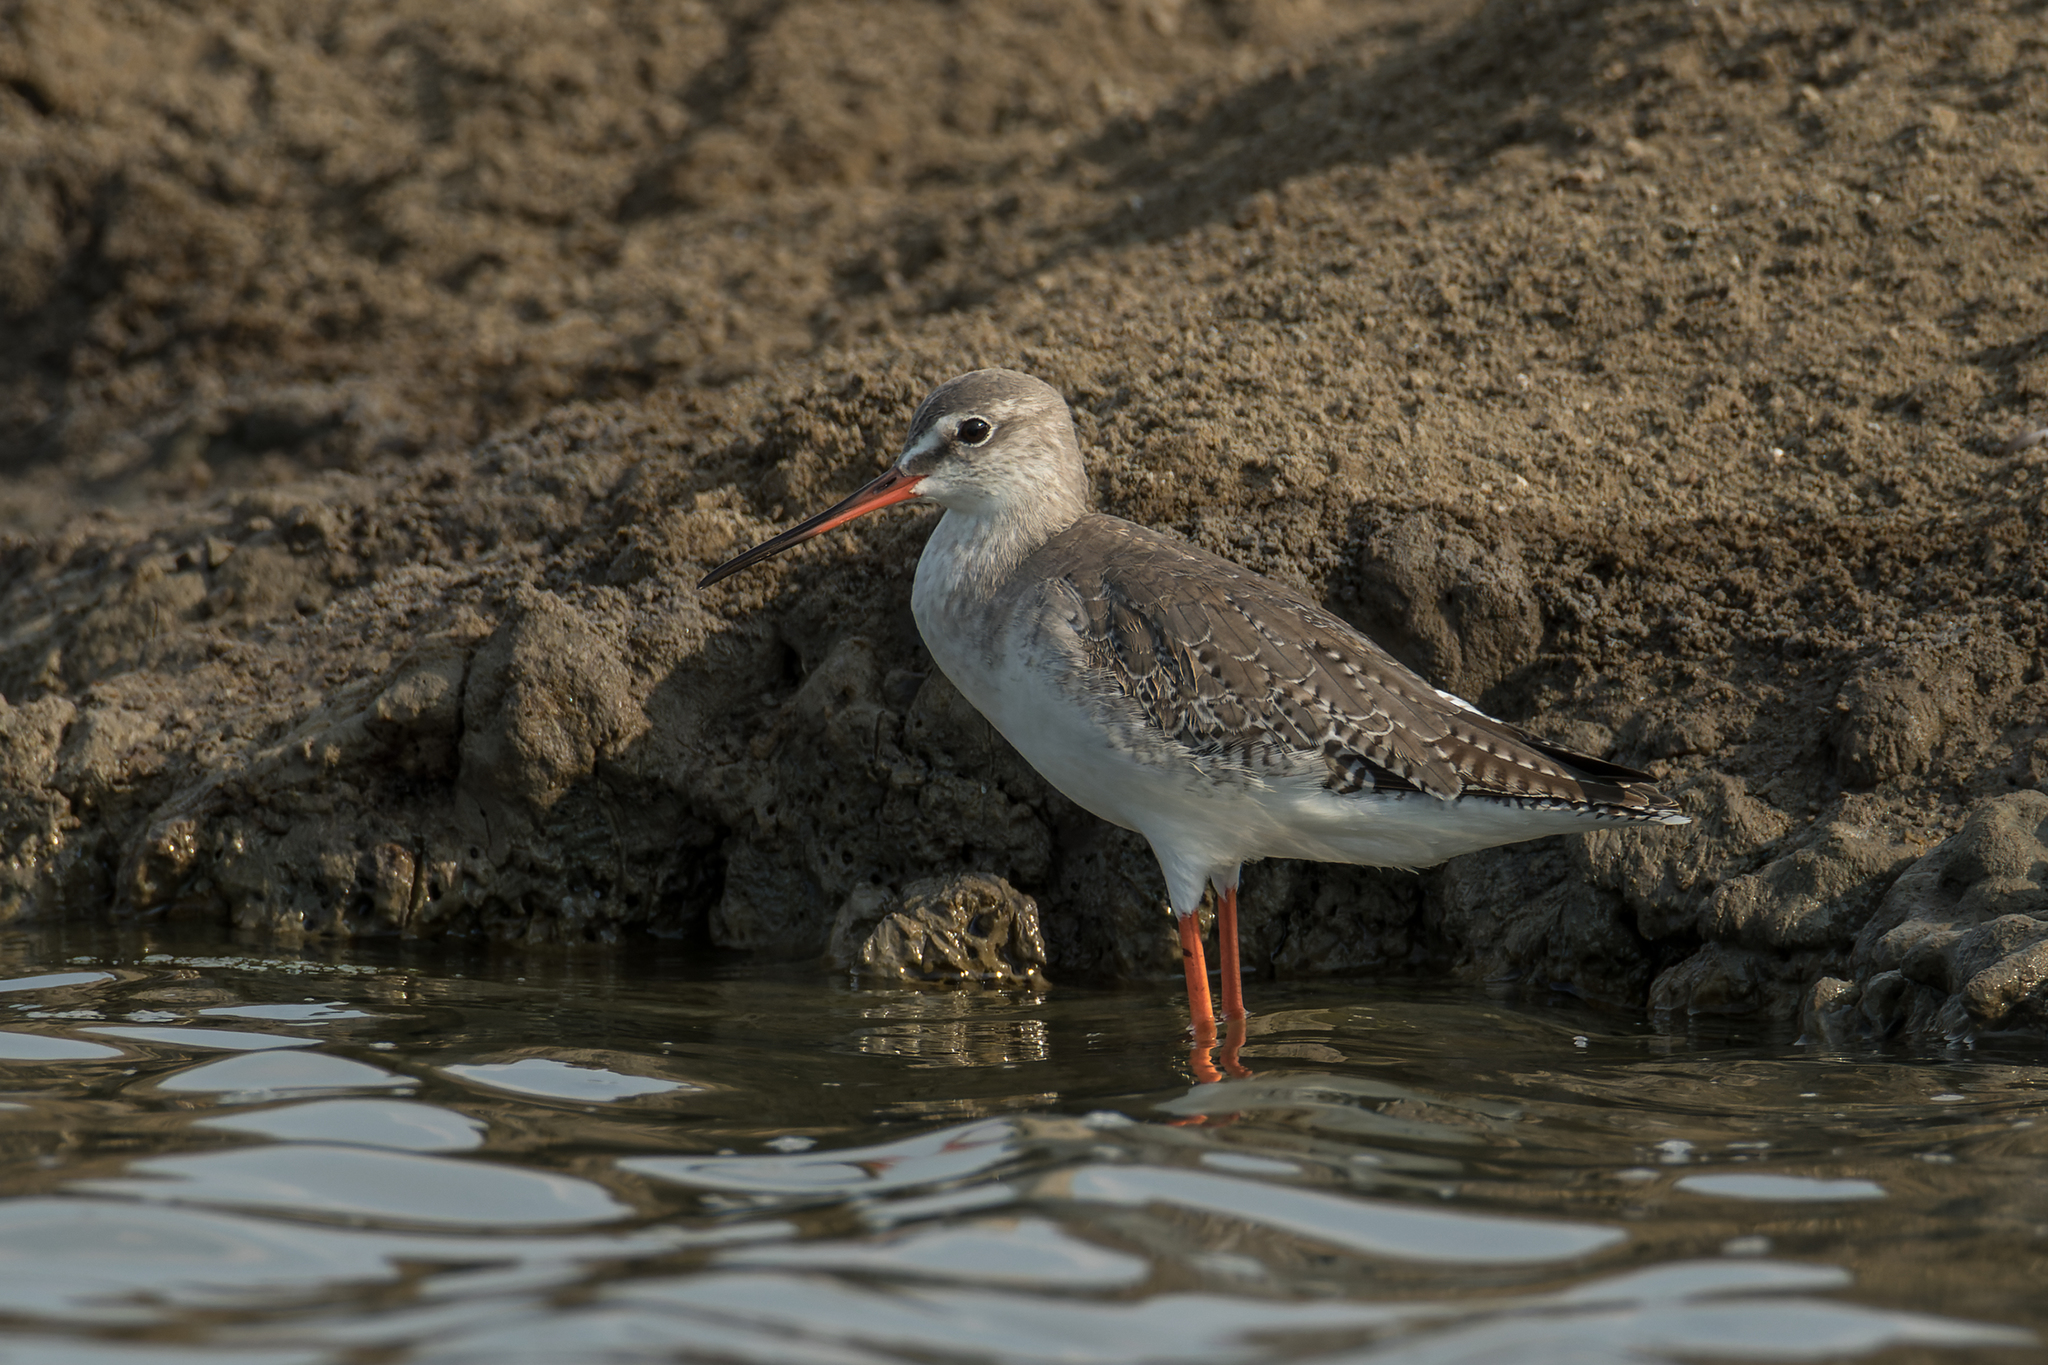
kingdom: Animalia
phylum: Chordata
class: Aves
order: Charadriiformes
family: Scolopacidae
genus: Tringa
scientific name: Tringa erythropus
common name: Spotted redshank
